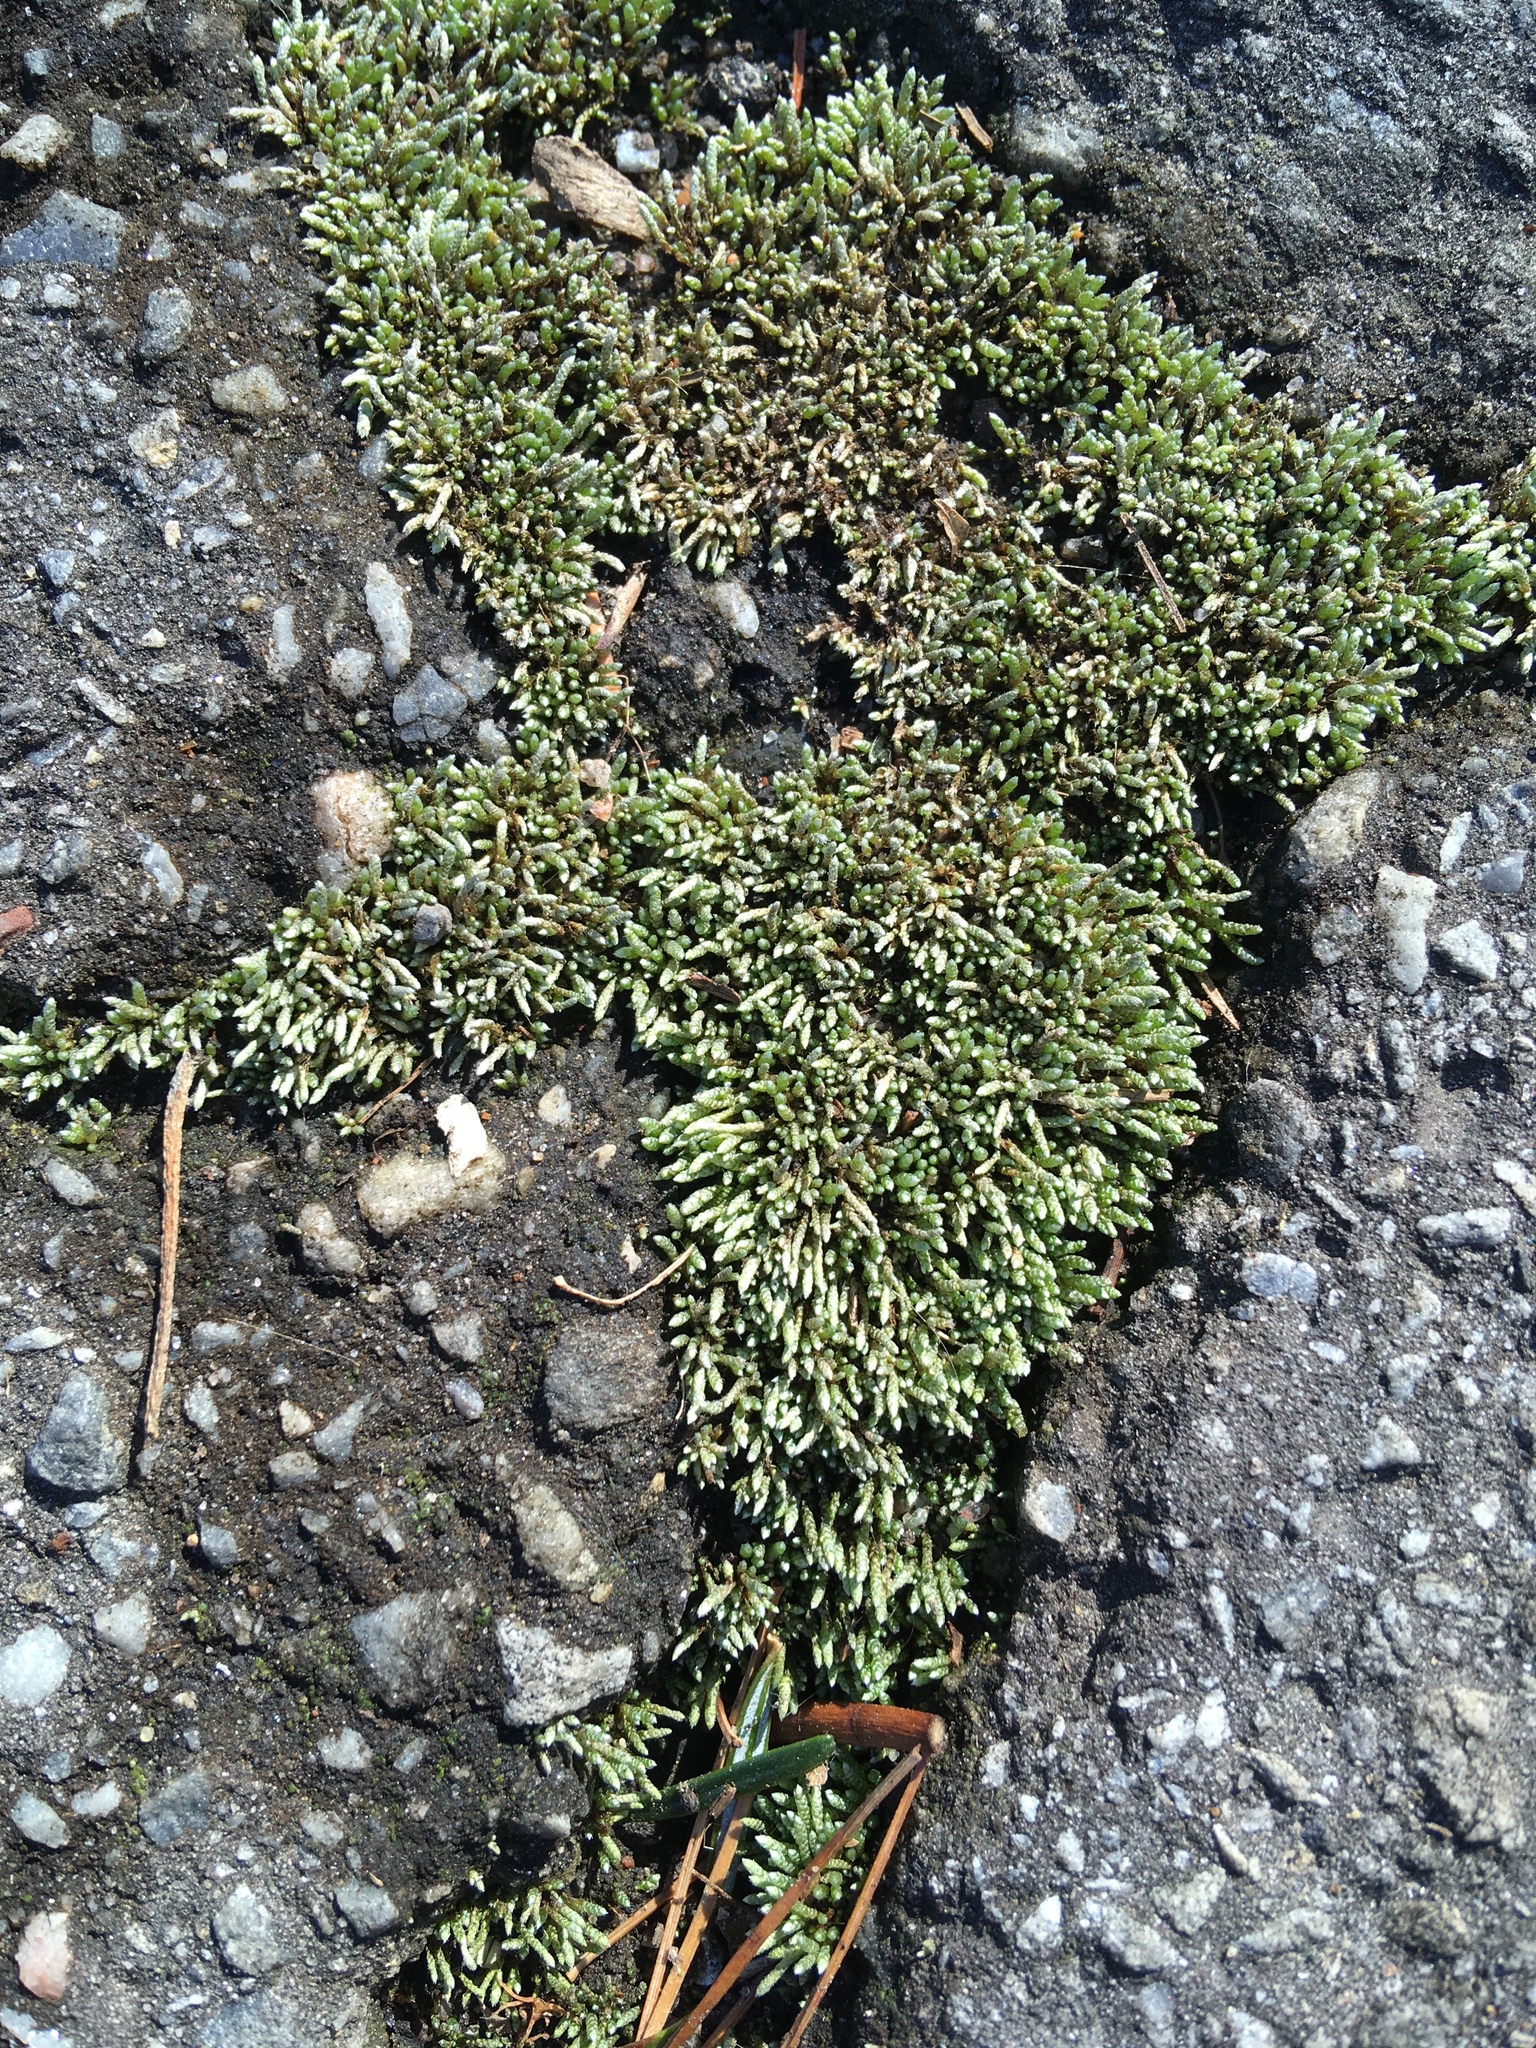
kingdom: Plantae
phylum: Bryophyta
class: Bryopsida
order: Bryales
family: Bryaceae
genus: Bryum
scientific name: Bryum argenteum
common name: Silver-moss
